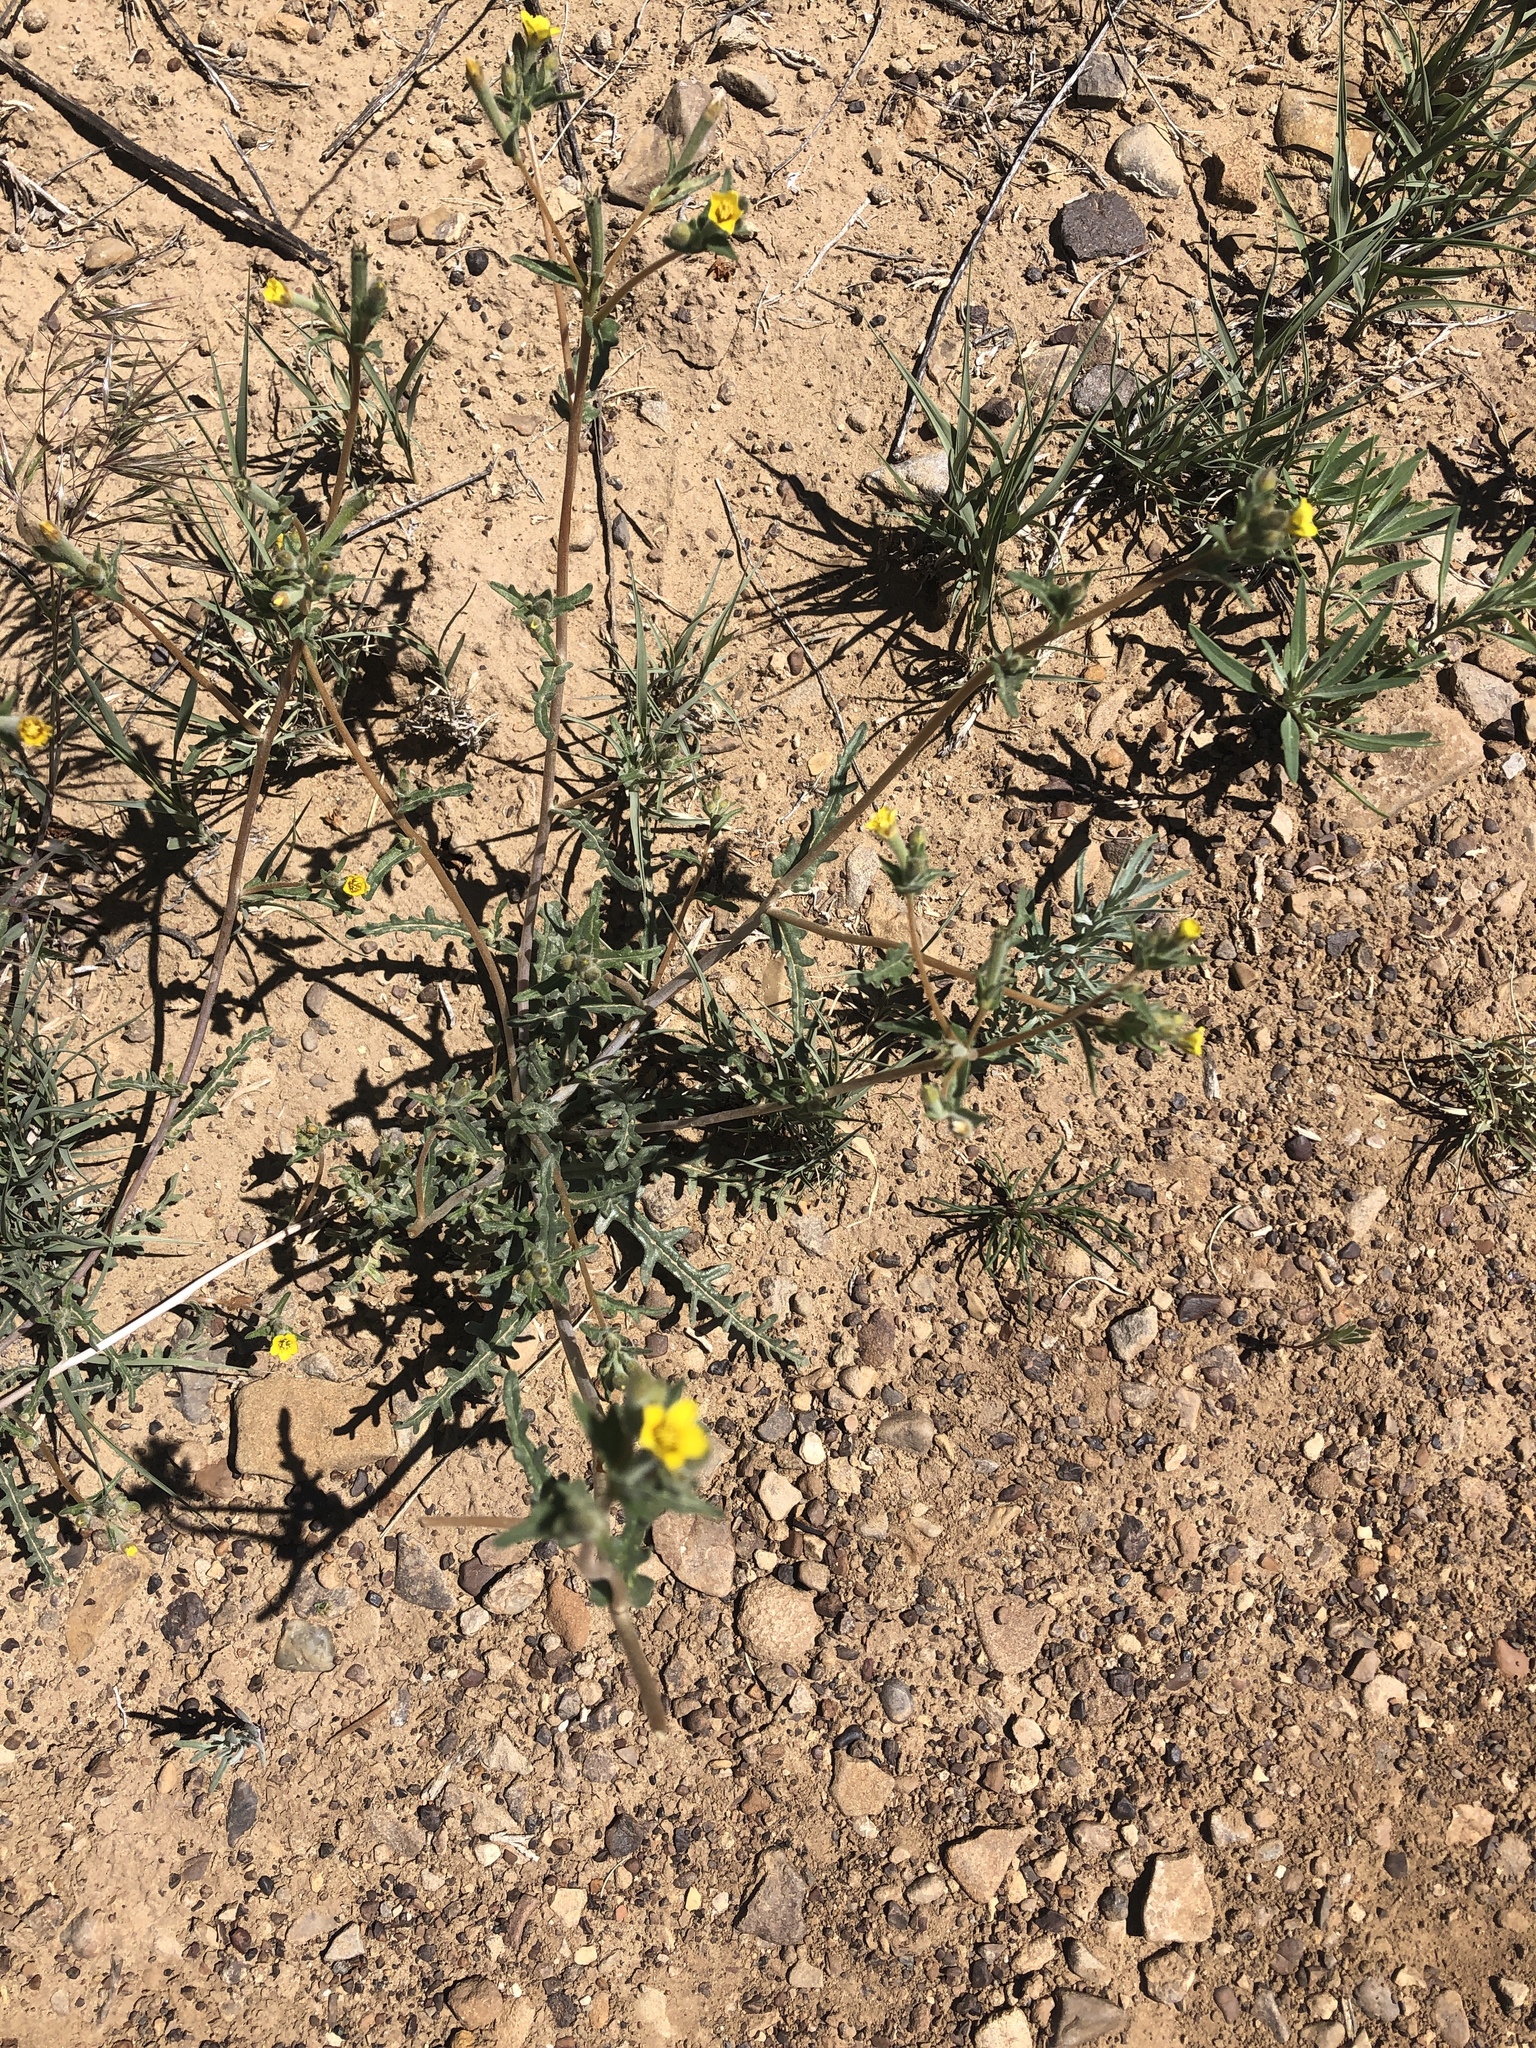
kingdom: Plantae
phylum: Tracheophyta
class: Magnoliopsida
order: Cornales
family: Loasaceae
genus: Mentzelia
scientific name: Mentzelia albicaulis
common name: White-stem blazingstar
